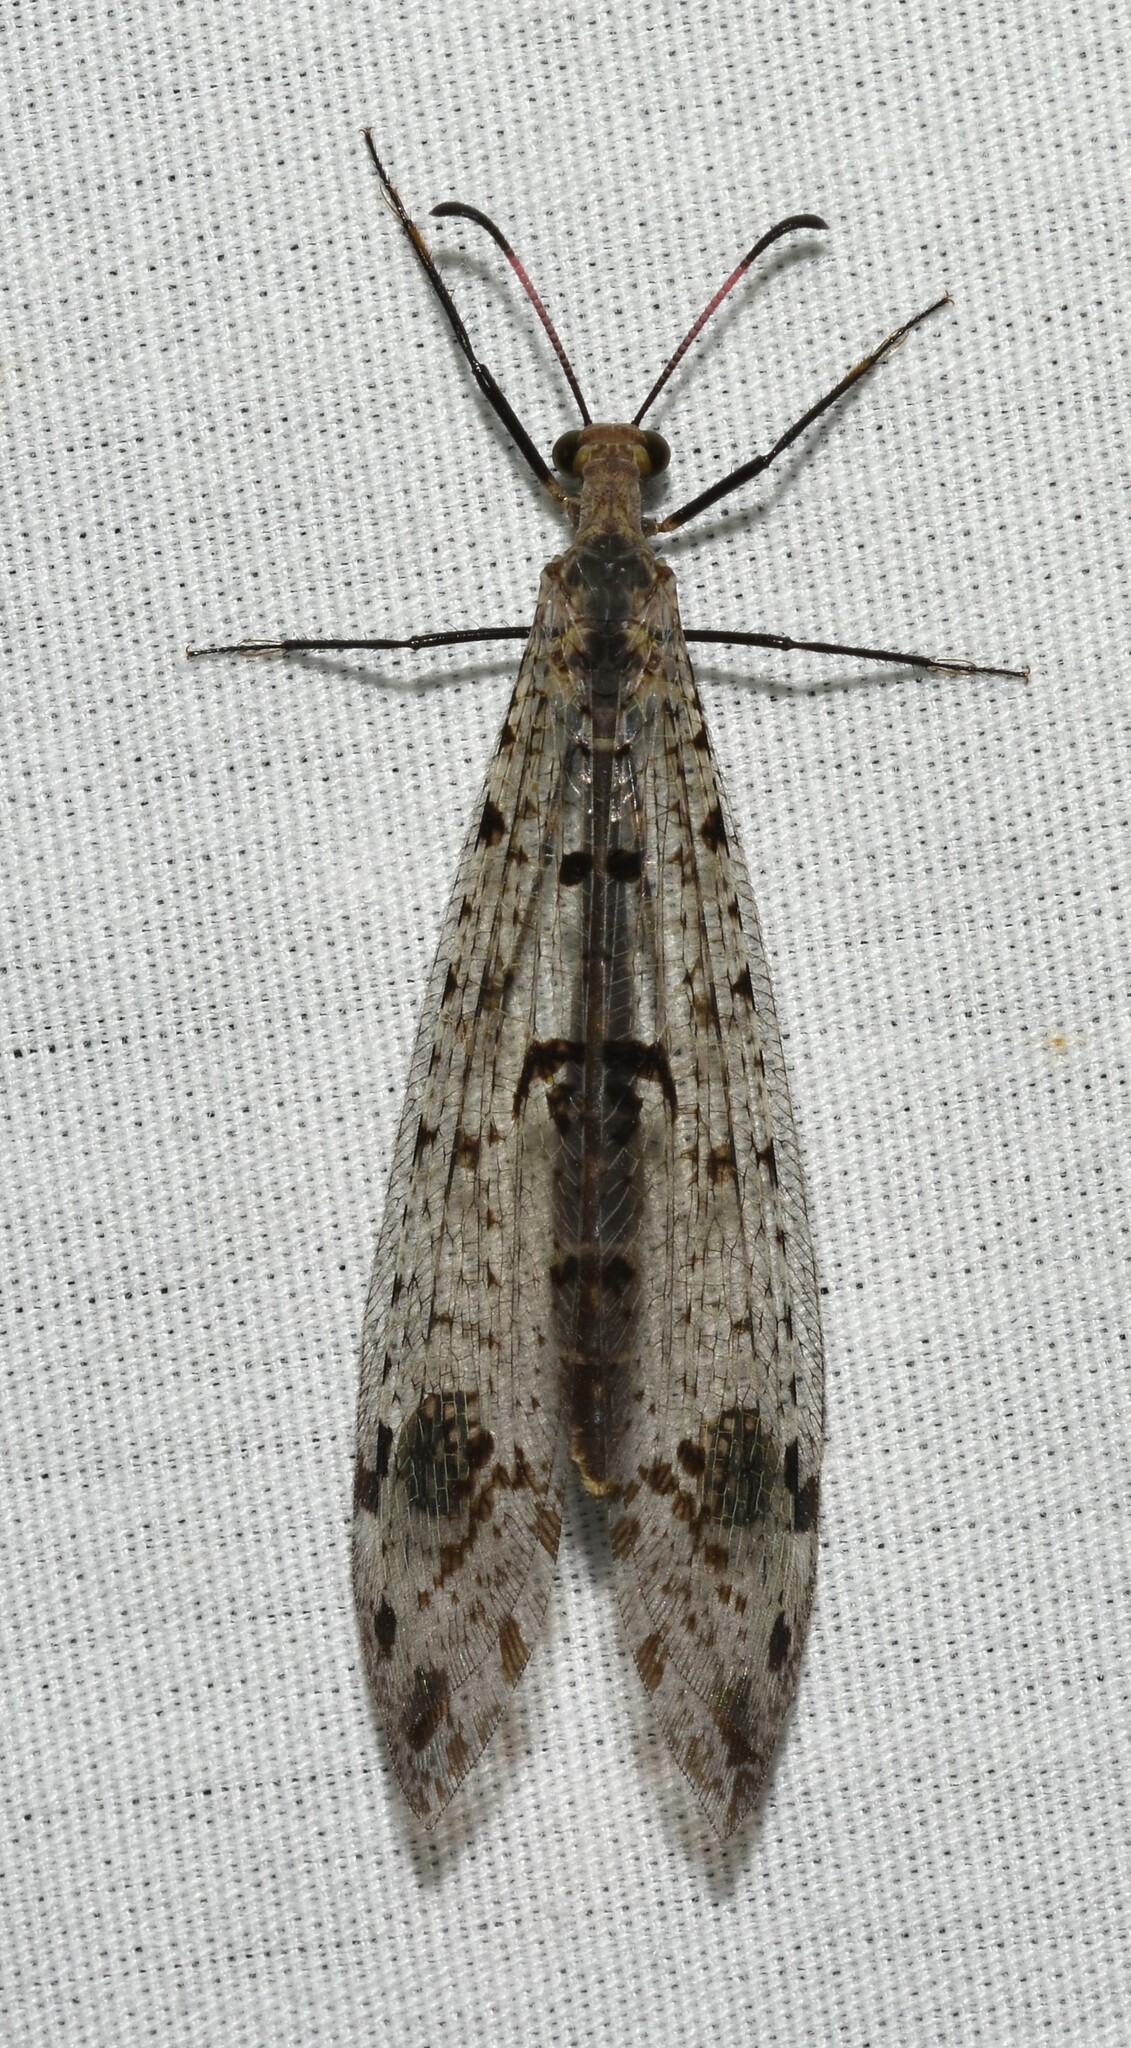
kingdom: Animalia
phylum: Arthropoda
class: Insecta
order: Neuroptera
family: Myrmeleontidae
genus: Dendroleon
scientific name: Dendroleon obsoletus
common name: Eastern spotted-winged antlion
